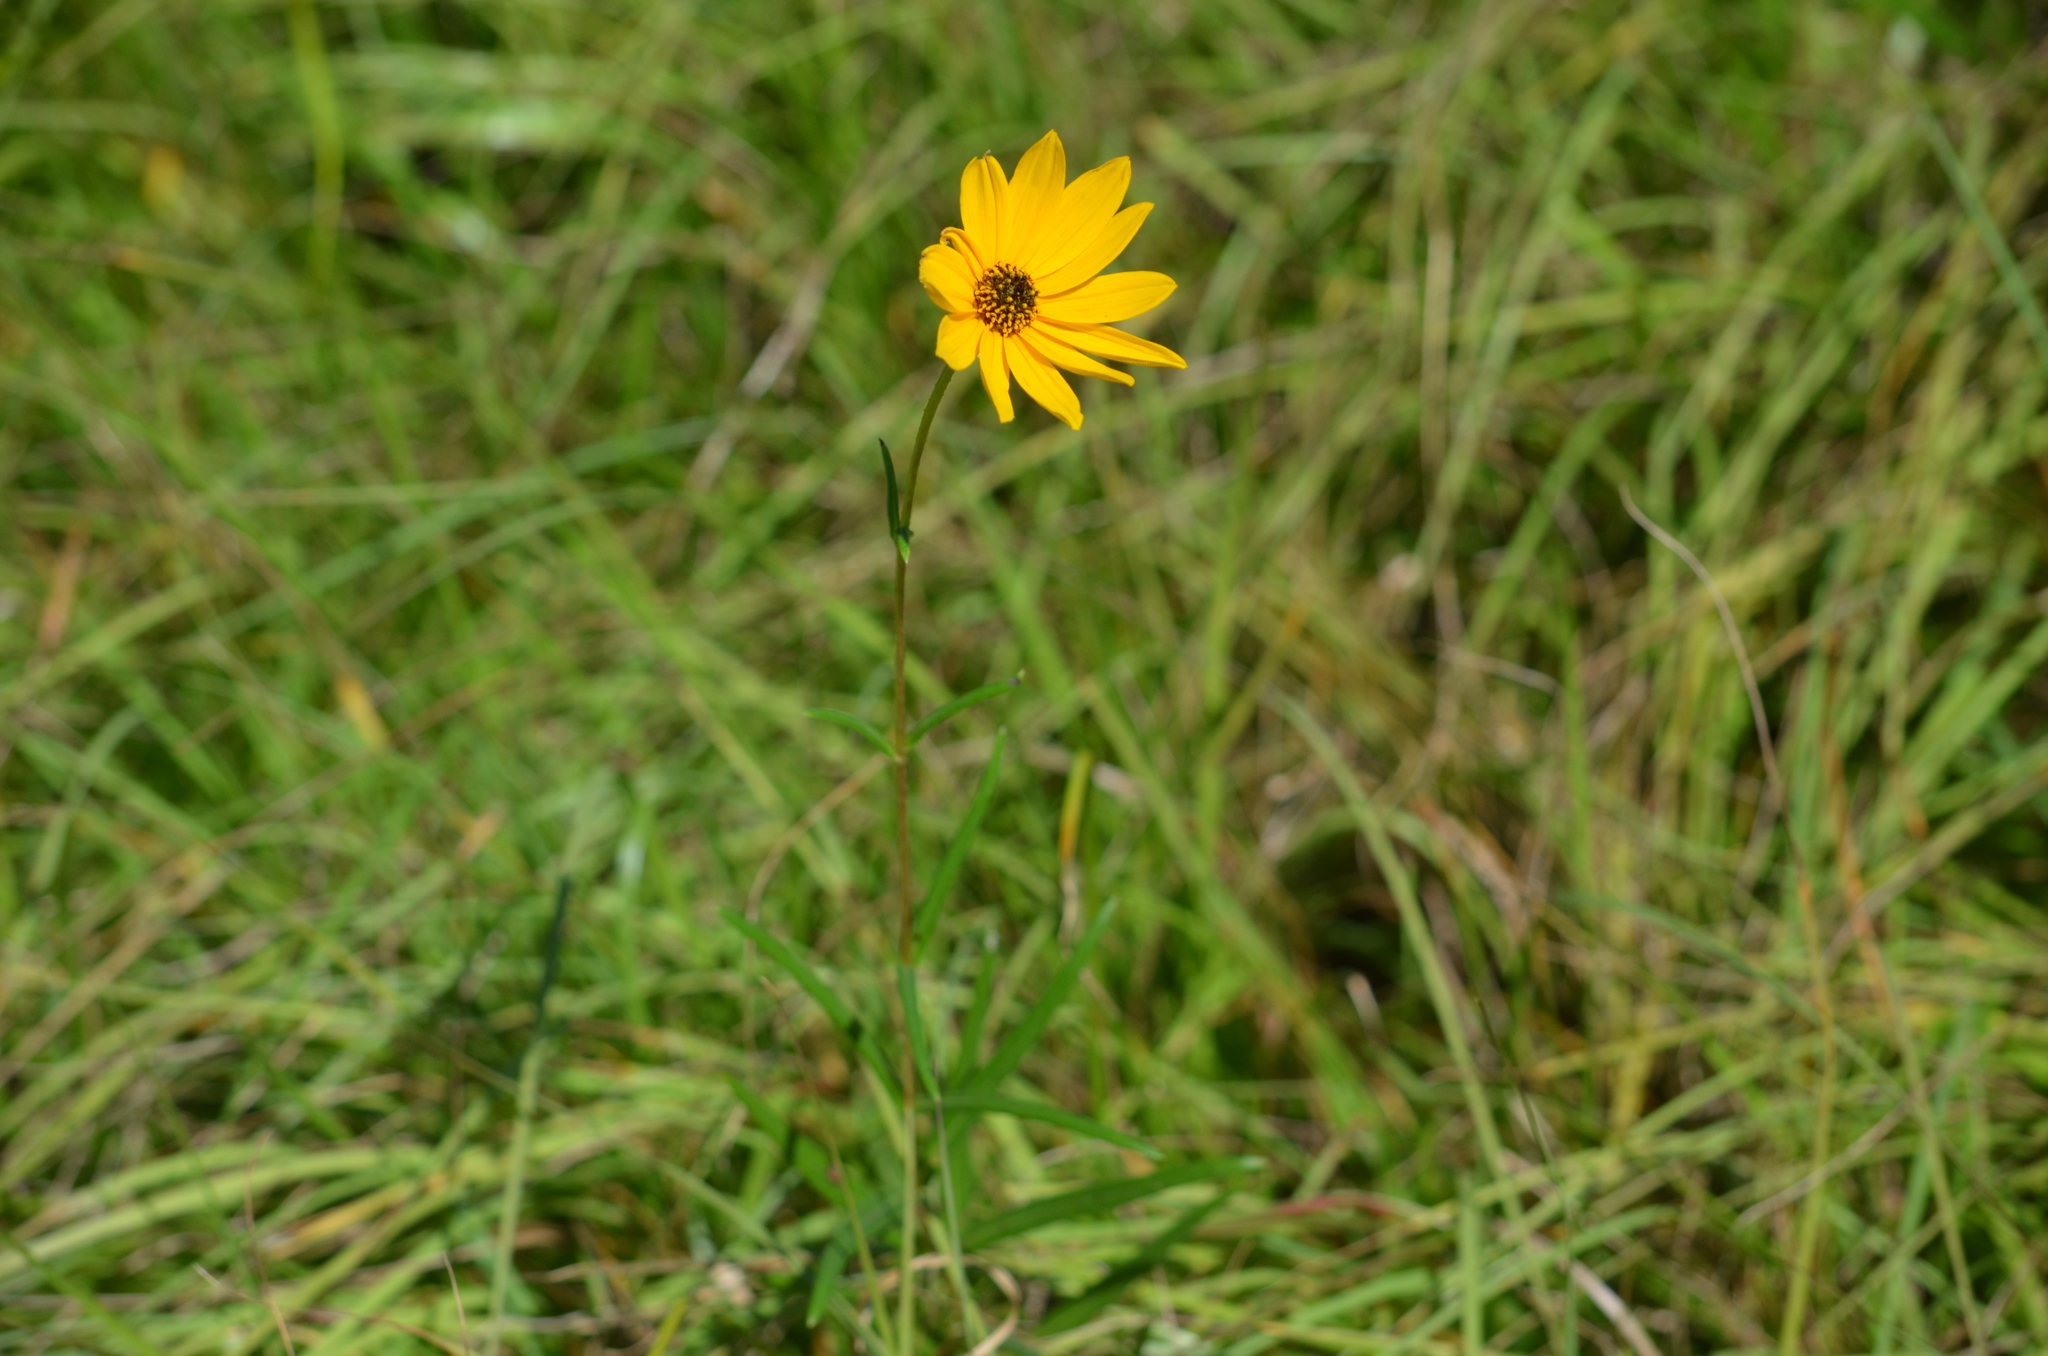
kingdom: Plantae
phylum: Tracheophyta
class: Magnoliopsida
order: Asterales
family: Asteraceae
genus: Helianthus
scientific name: Helianthus angustifolius
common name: Swamp sunflower
